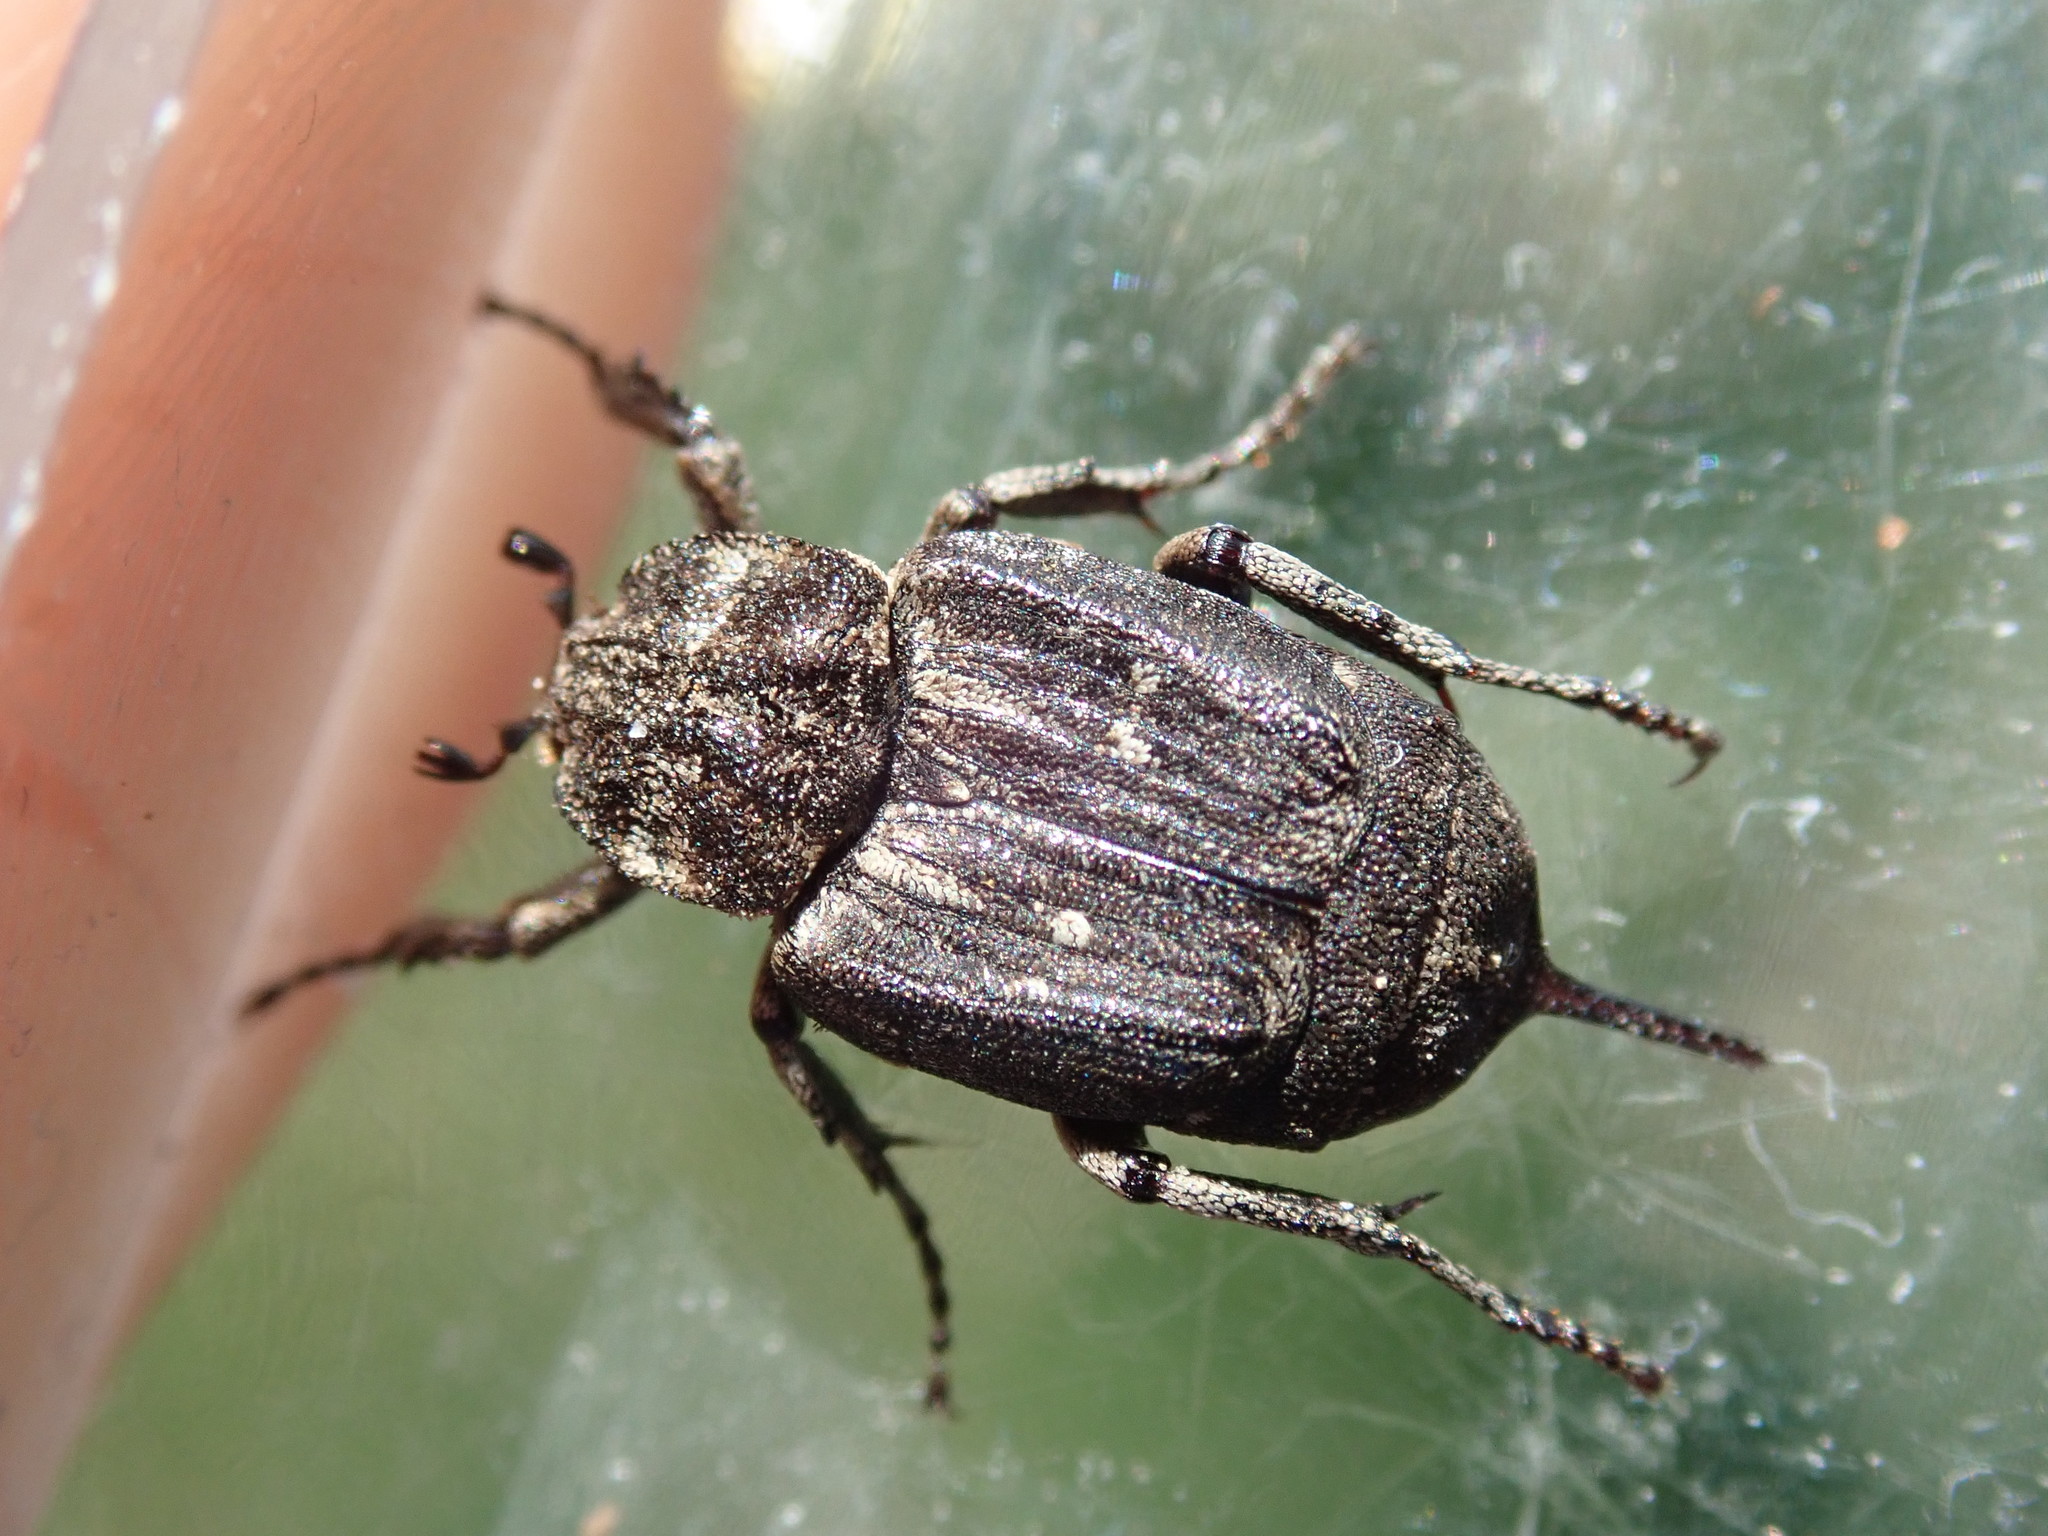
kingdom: Animalia
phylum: Arthropoda
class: Insecta
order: Coleoptera
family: Scarabaeidae
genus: Valgus
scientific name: Valgus hemipterus
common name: Bug flower chafer
